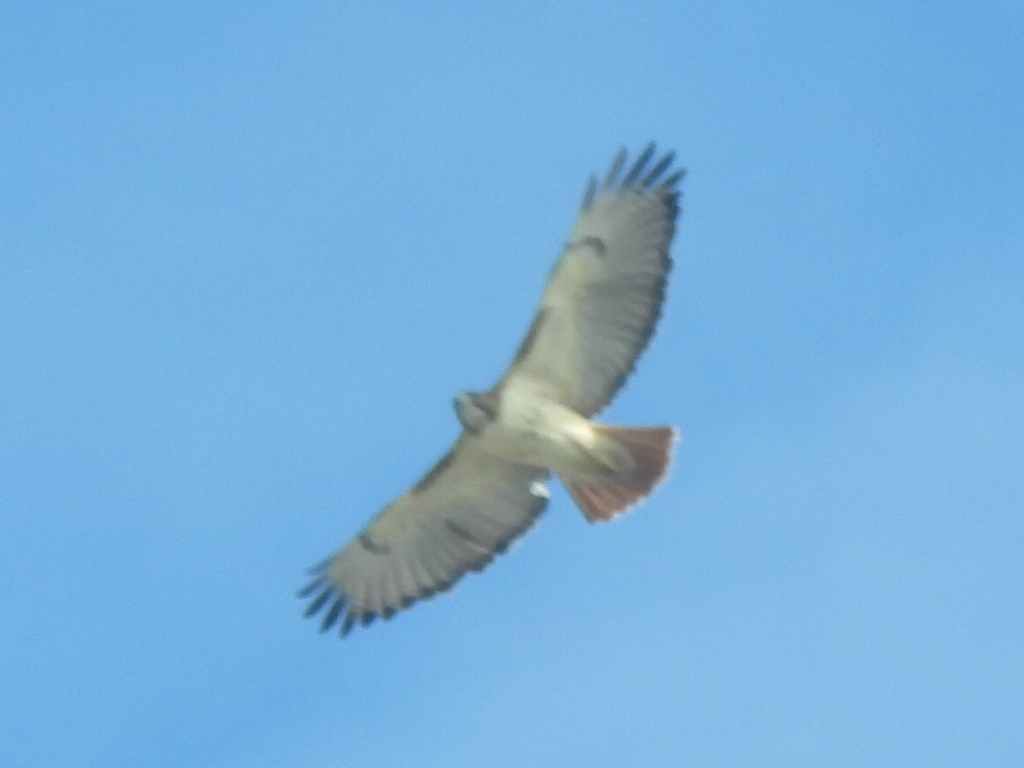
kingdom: Animalia
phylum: Chordata
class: Aves
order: Accipitriformes
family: Accipitridae
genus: Buteo
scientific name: Buteo jamaicensis
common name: Red-tailed hawk
